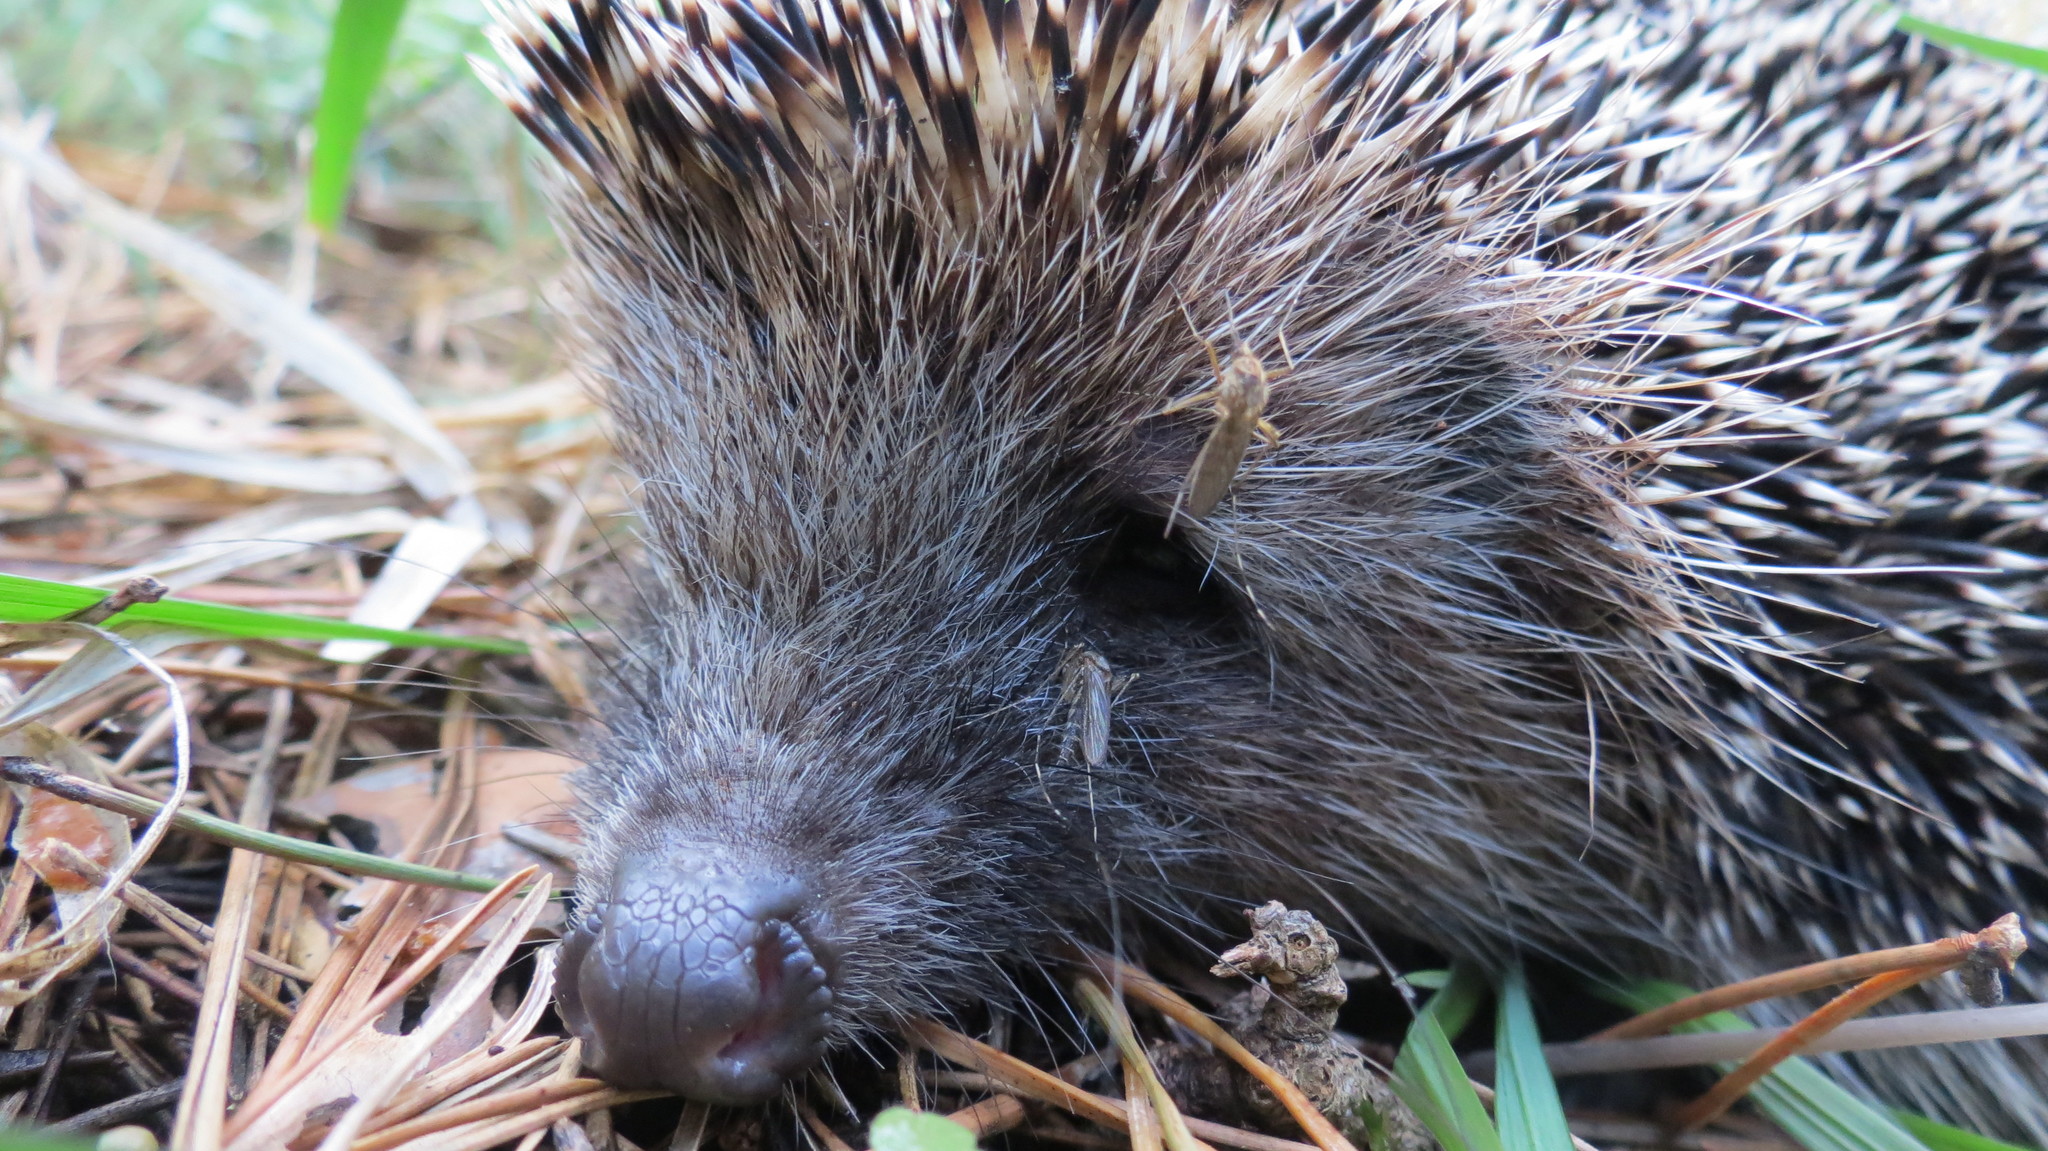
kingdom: Animalia
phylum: Chordata
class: Mammalia
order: Erinaceomorpha
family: Erinaceidae
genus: Erinaceus
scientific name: Erinaceus roumanicus
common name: Northern white-breasted hedgehog
